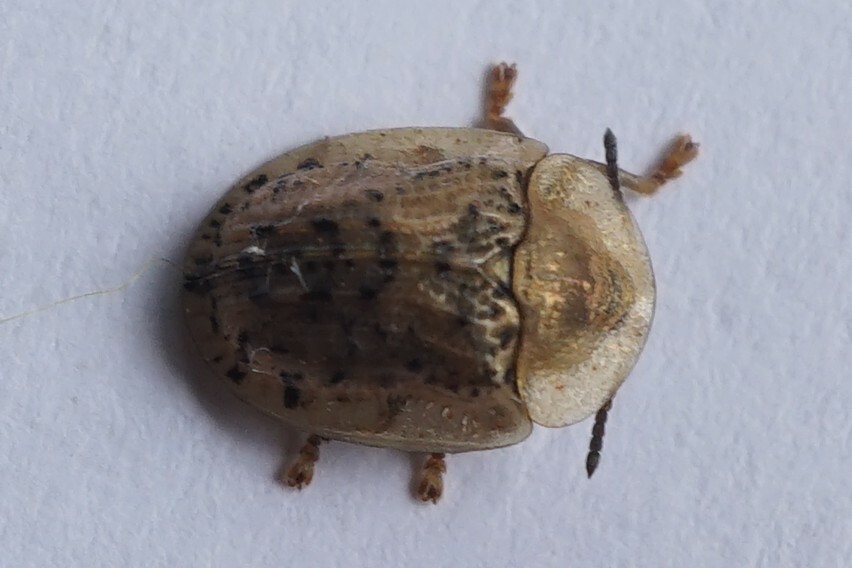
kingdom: Animalia
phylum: Arthropoda
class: Insecta
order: Coleoptera
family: Chrysomelidae
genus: Cassida
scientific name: Cassida nebulosa
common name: Beet tortoise beetle
